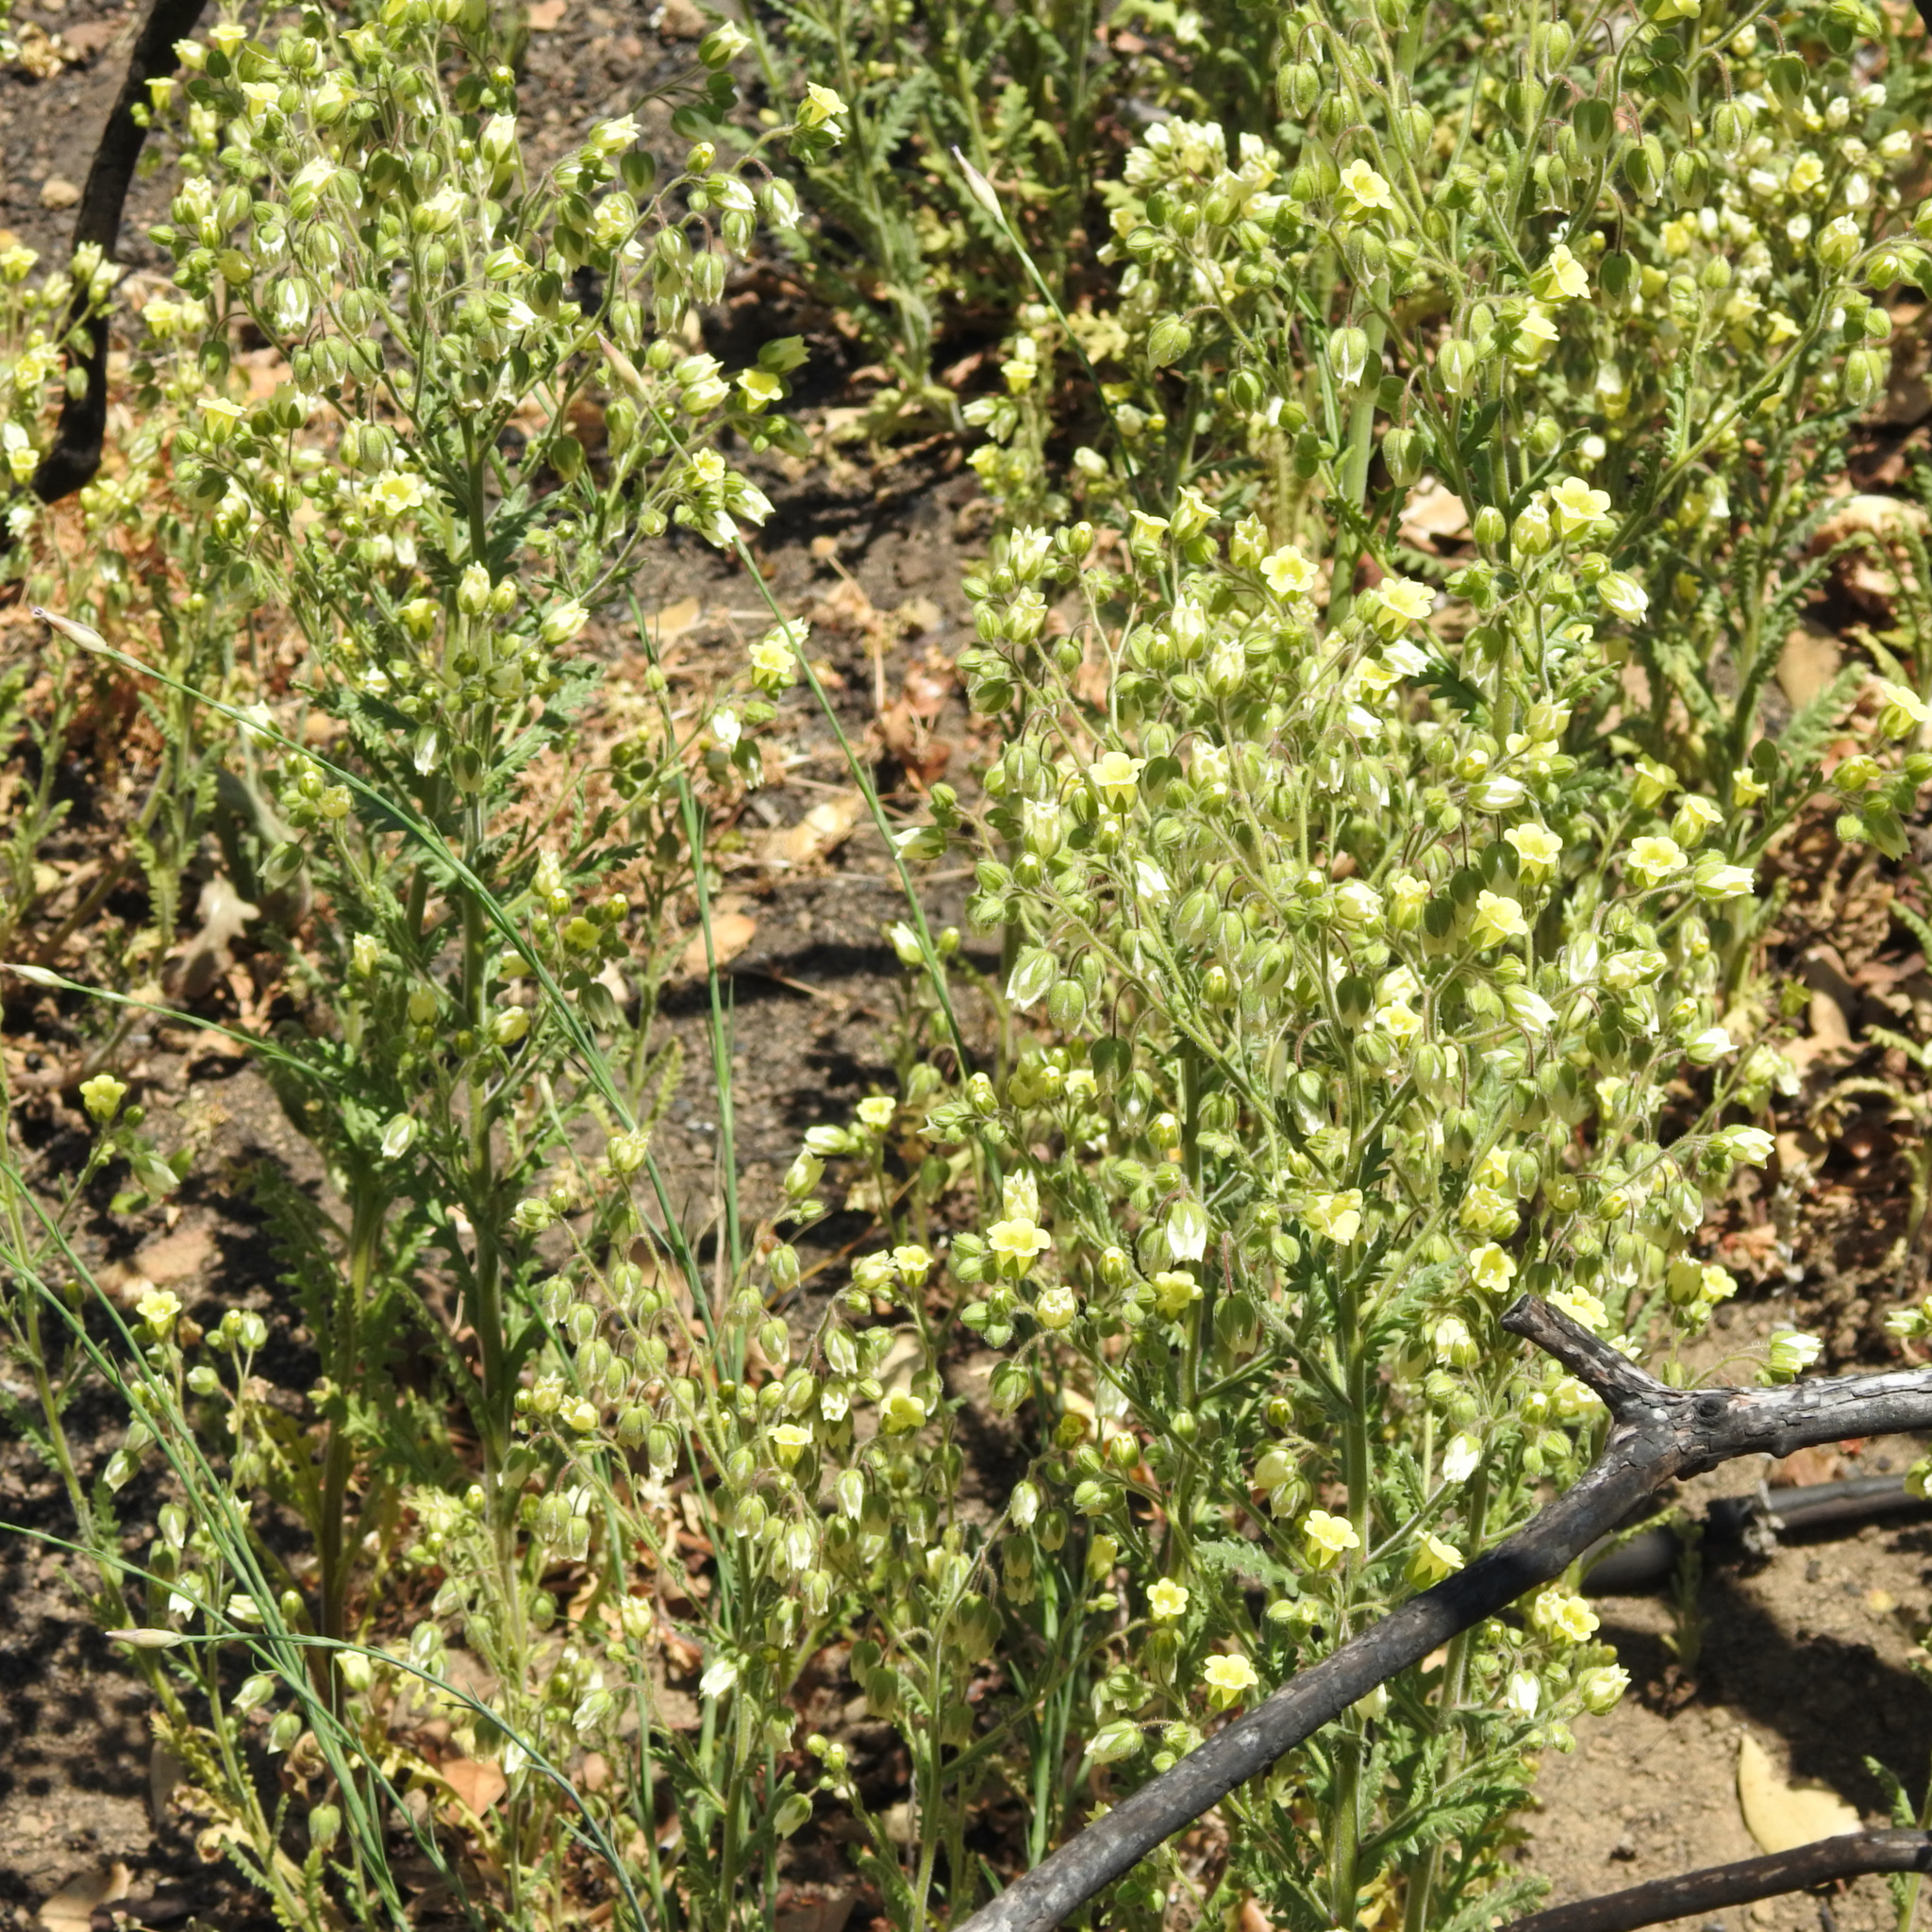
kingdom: Plantae
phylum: Tracheophyta
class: Magnoliopsida
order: Boraginales
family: Hydrophyllaceae
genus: Emmenanthe
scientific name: Emmenanthe penduliflora
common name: Whispering-bells
